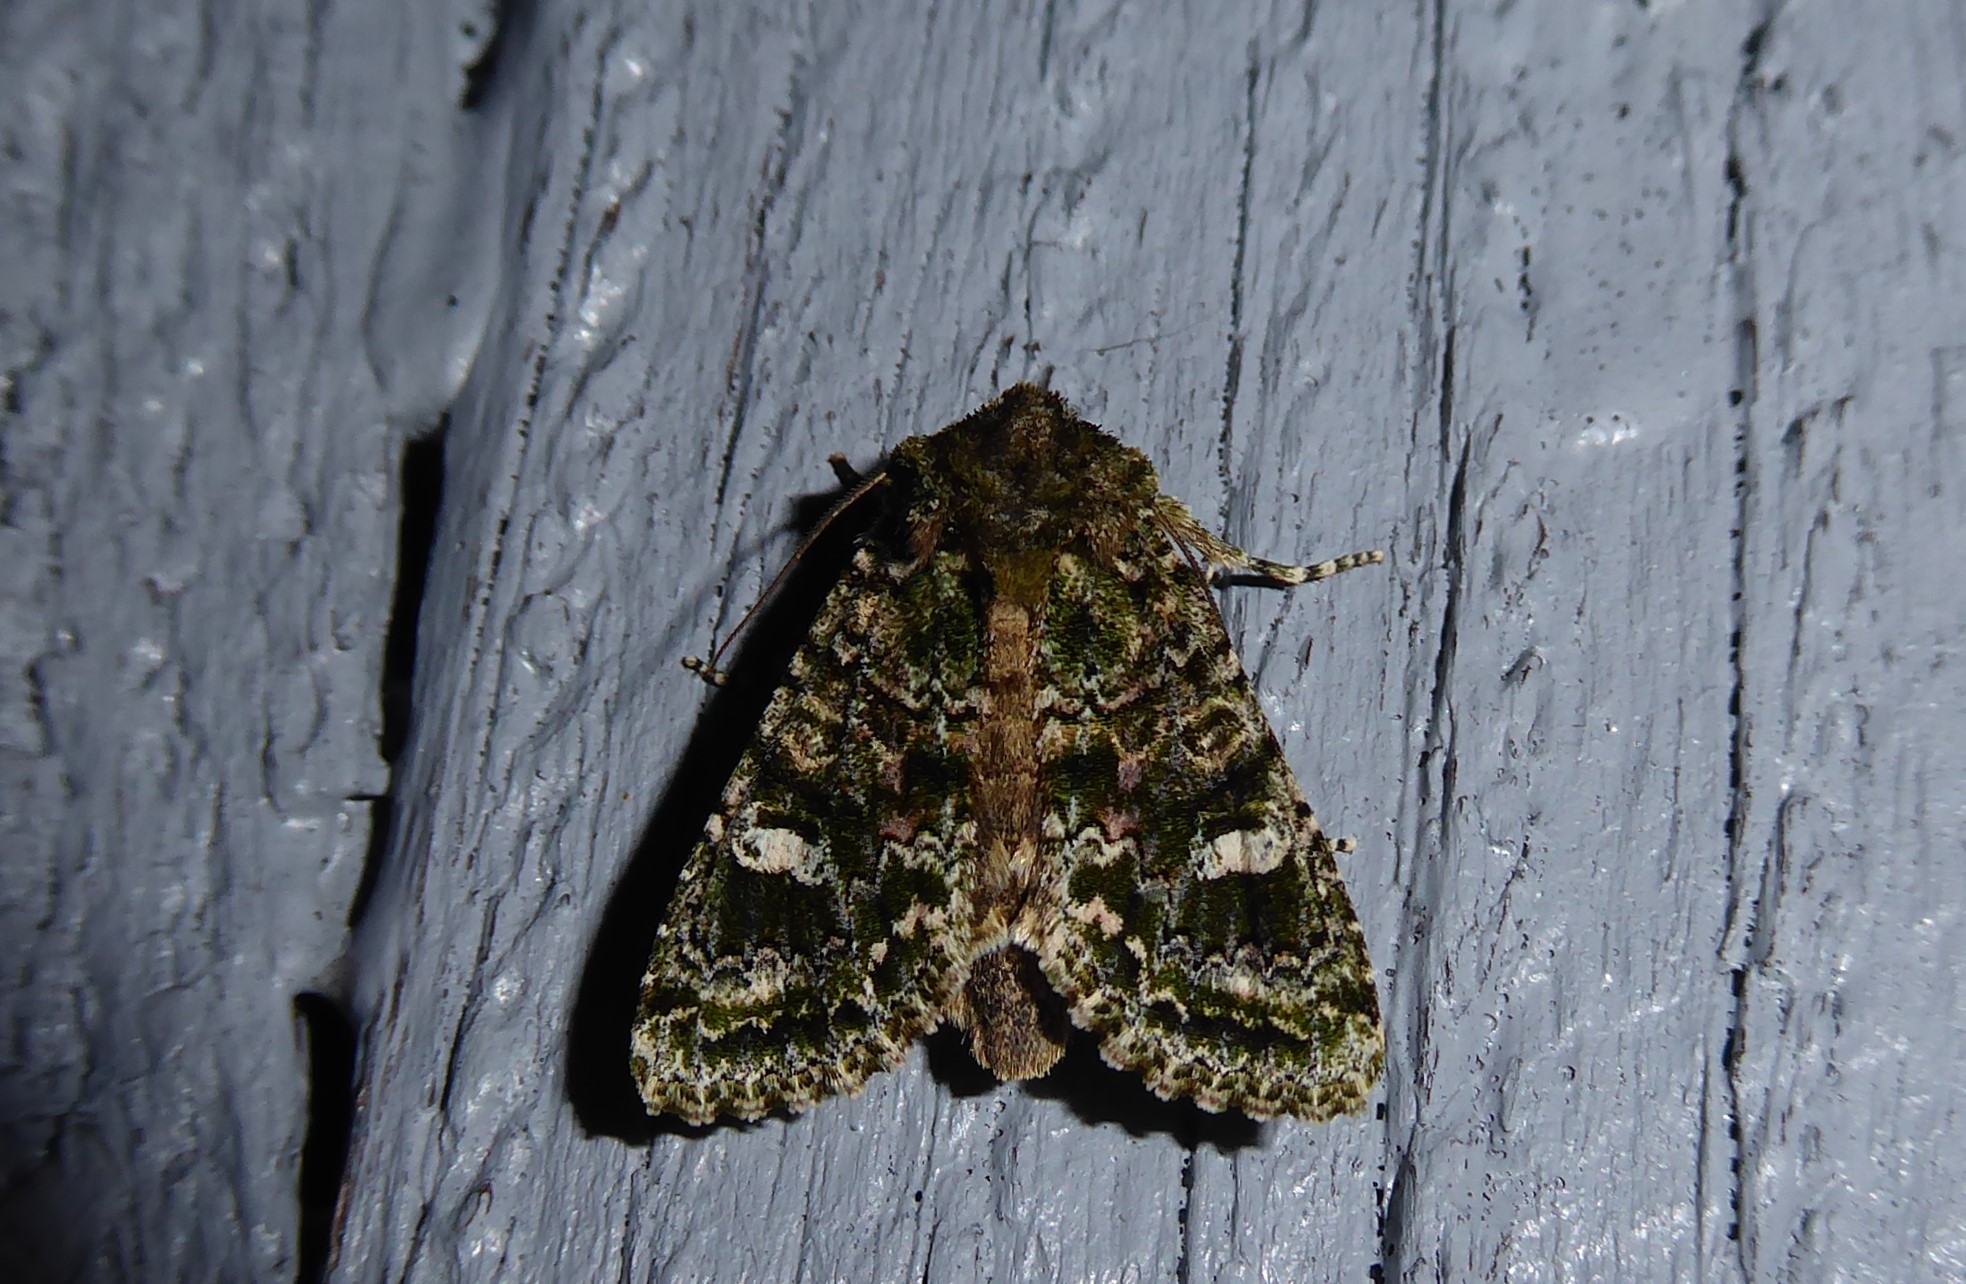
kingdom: Animalia
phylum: Arthropoda
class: Insecta
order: Lepidoptera
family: Noctuidae
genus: Ichneutica
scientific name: Ichneutica
